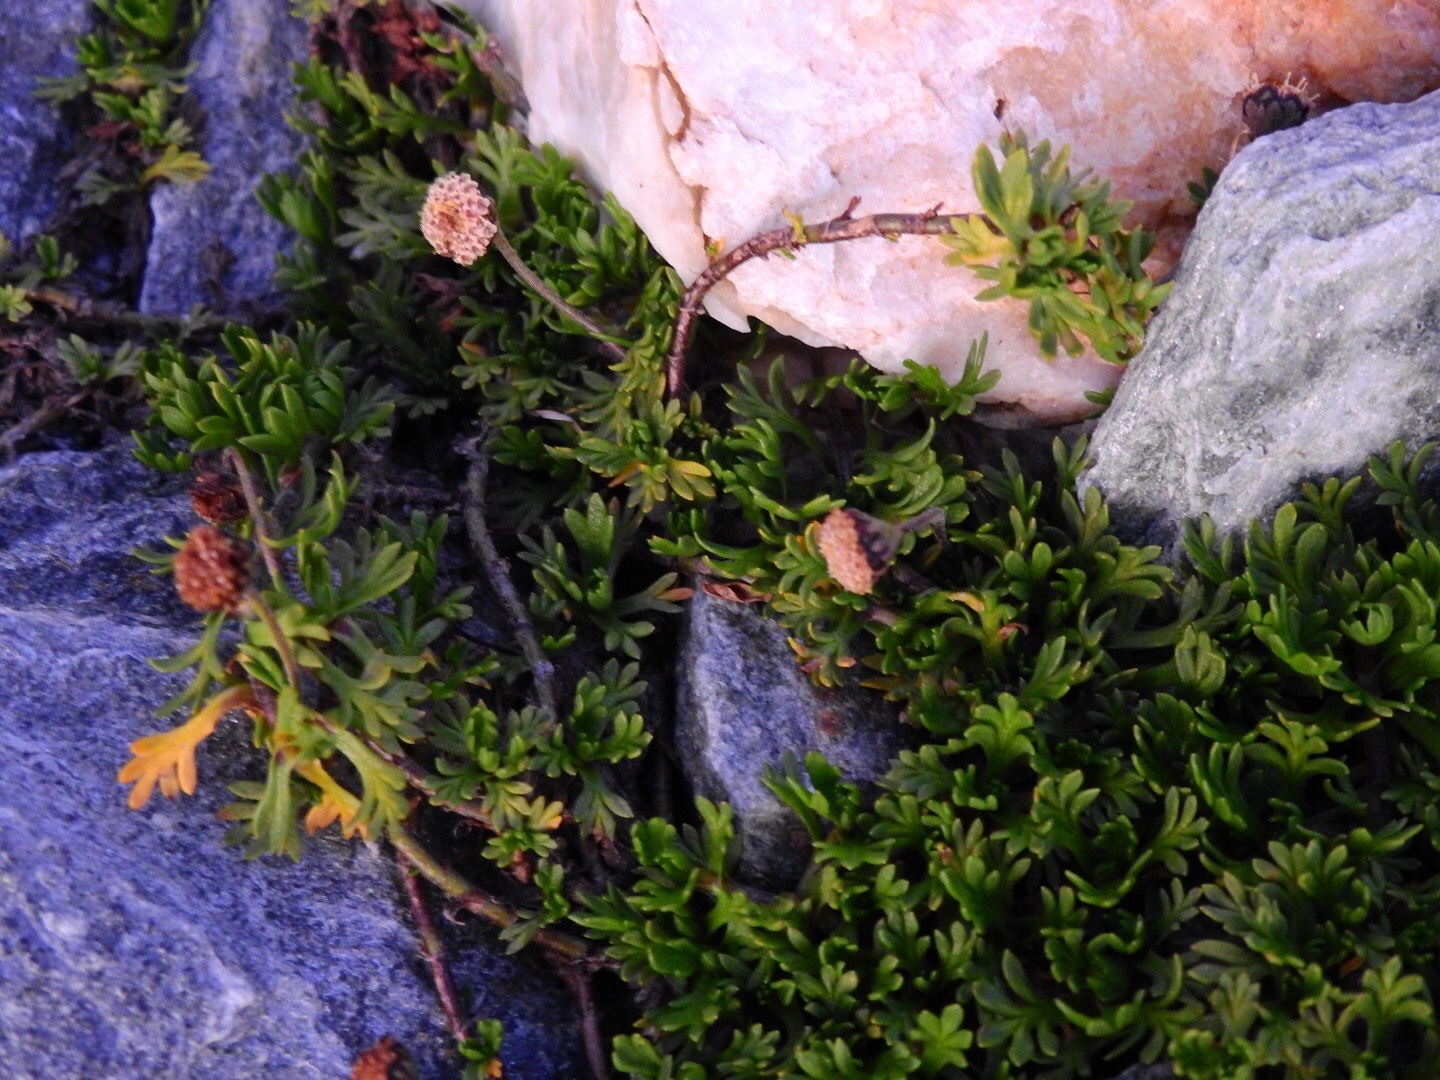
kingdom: Plantae
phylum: Tracheophyta
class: Magnoliopsida
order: Asterales
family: Asteraceae
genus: Leptinella
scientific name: Leptinella pectinata
